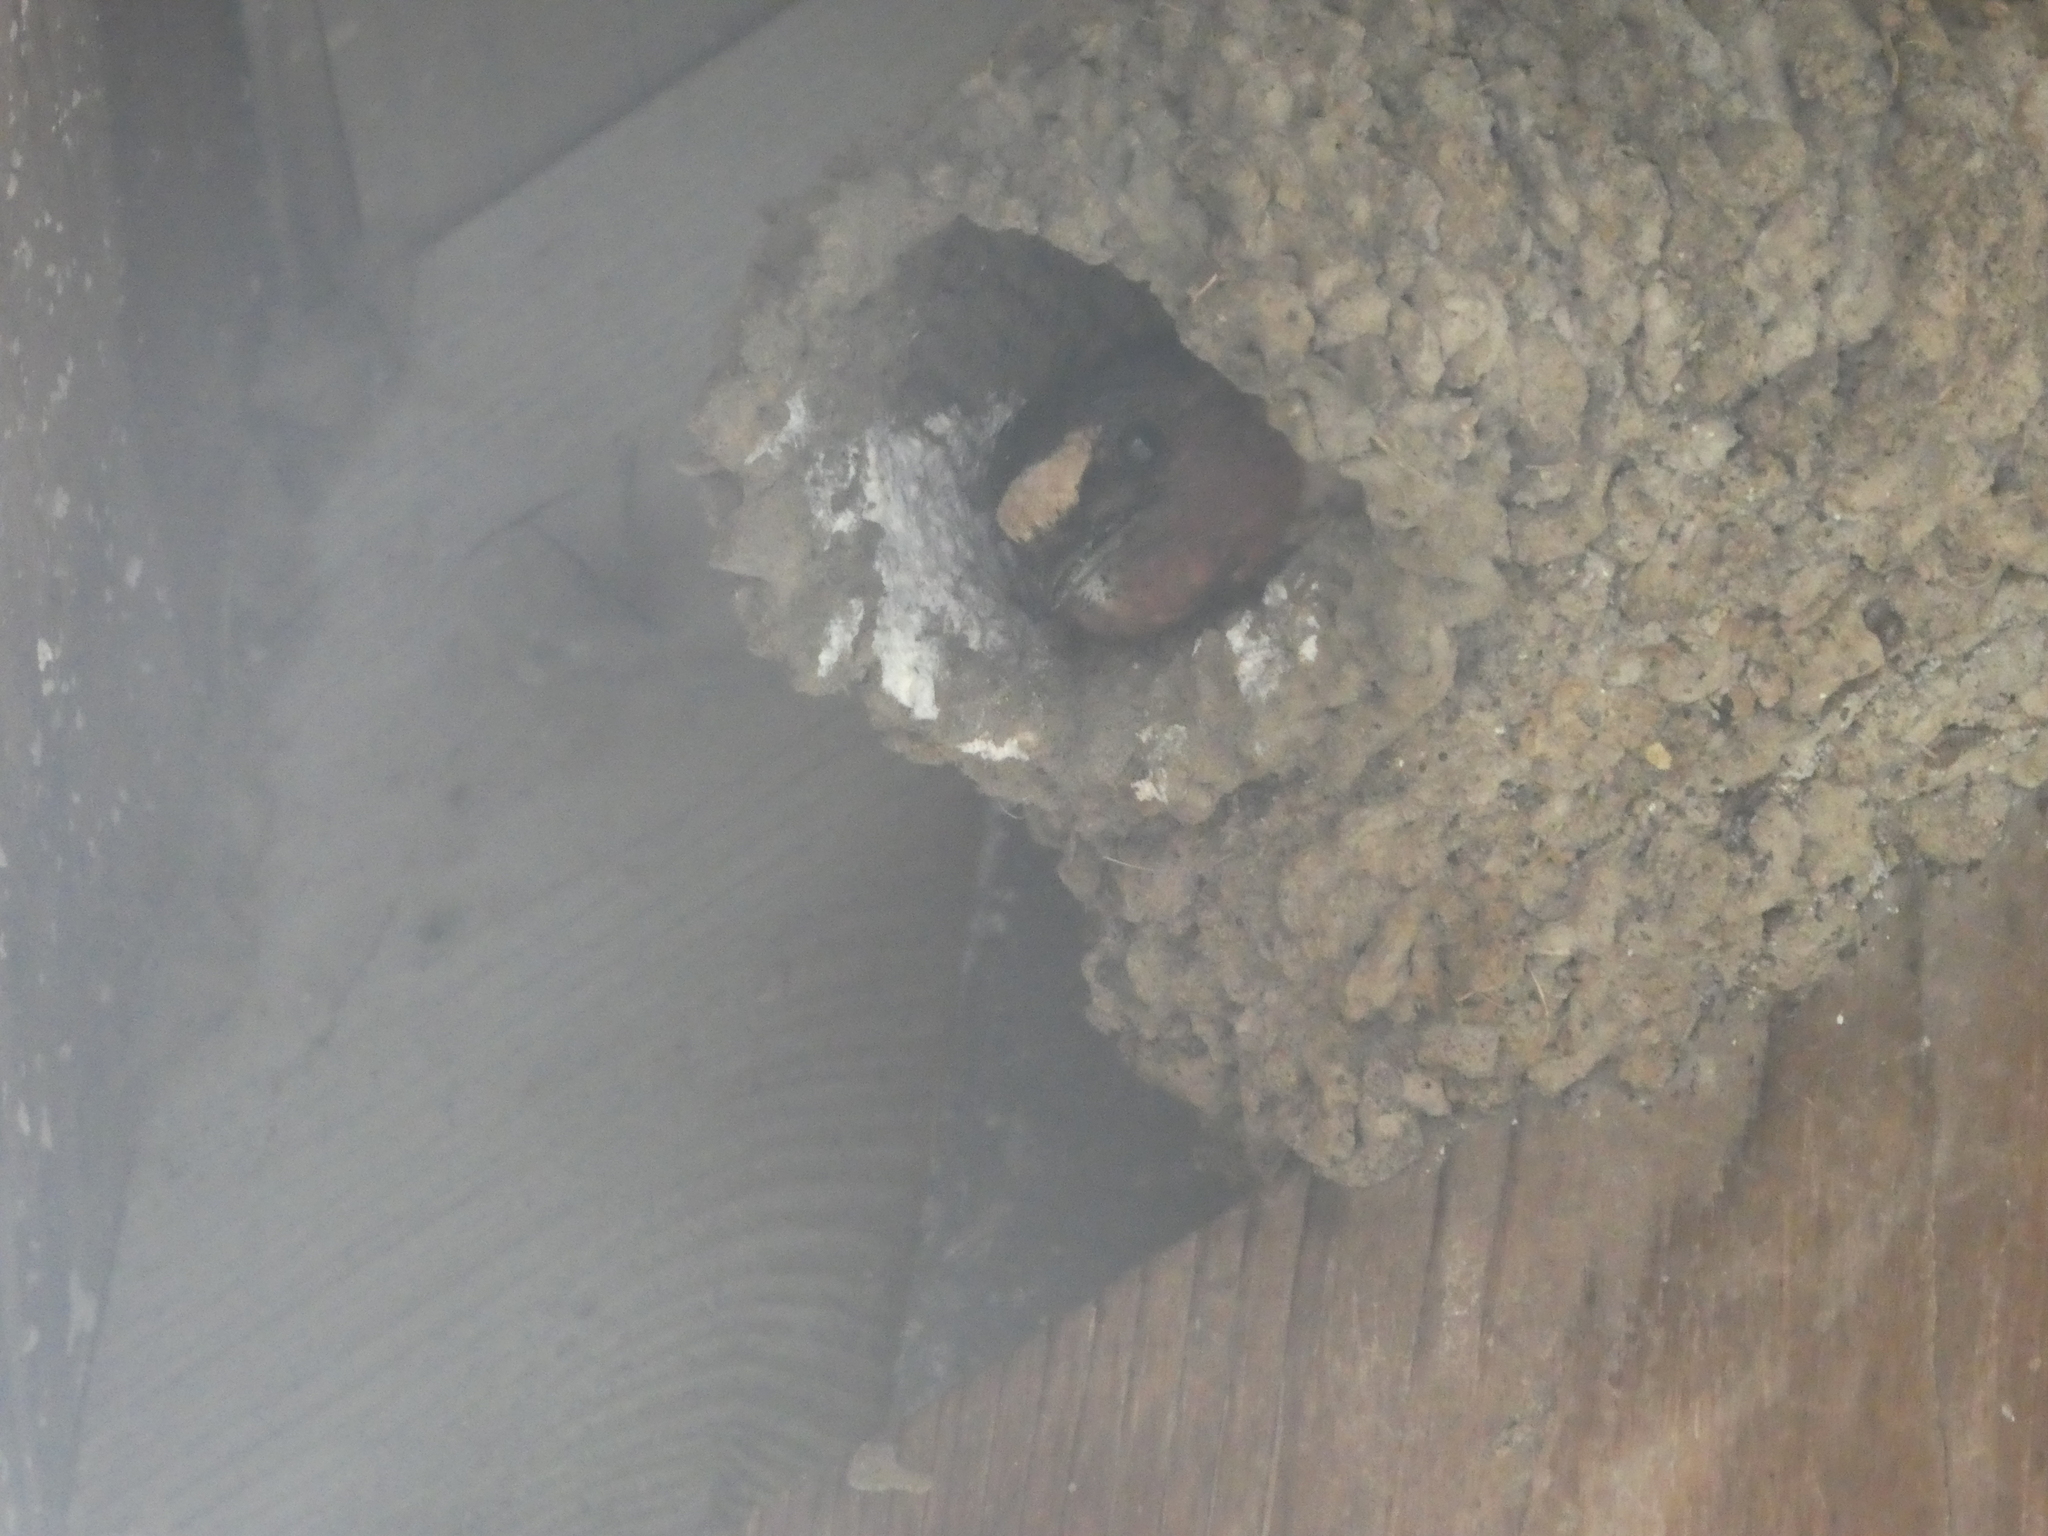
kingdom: Animalia
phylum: Chordata
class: Aves
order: Passeriformes
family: Hirundinidae
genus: Petrochelidon
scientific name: Petrochelidon pyrrhonota
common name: American cliff swallow
